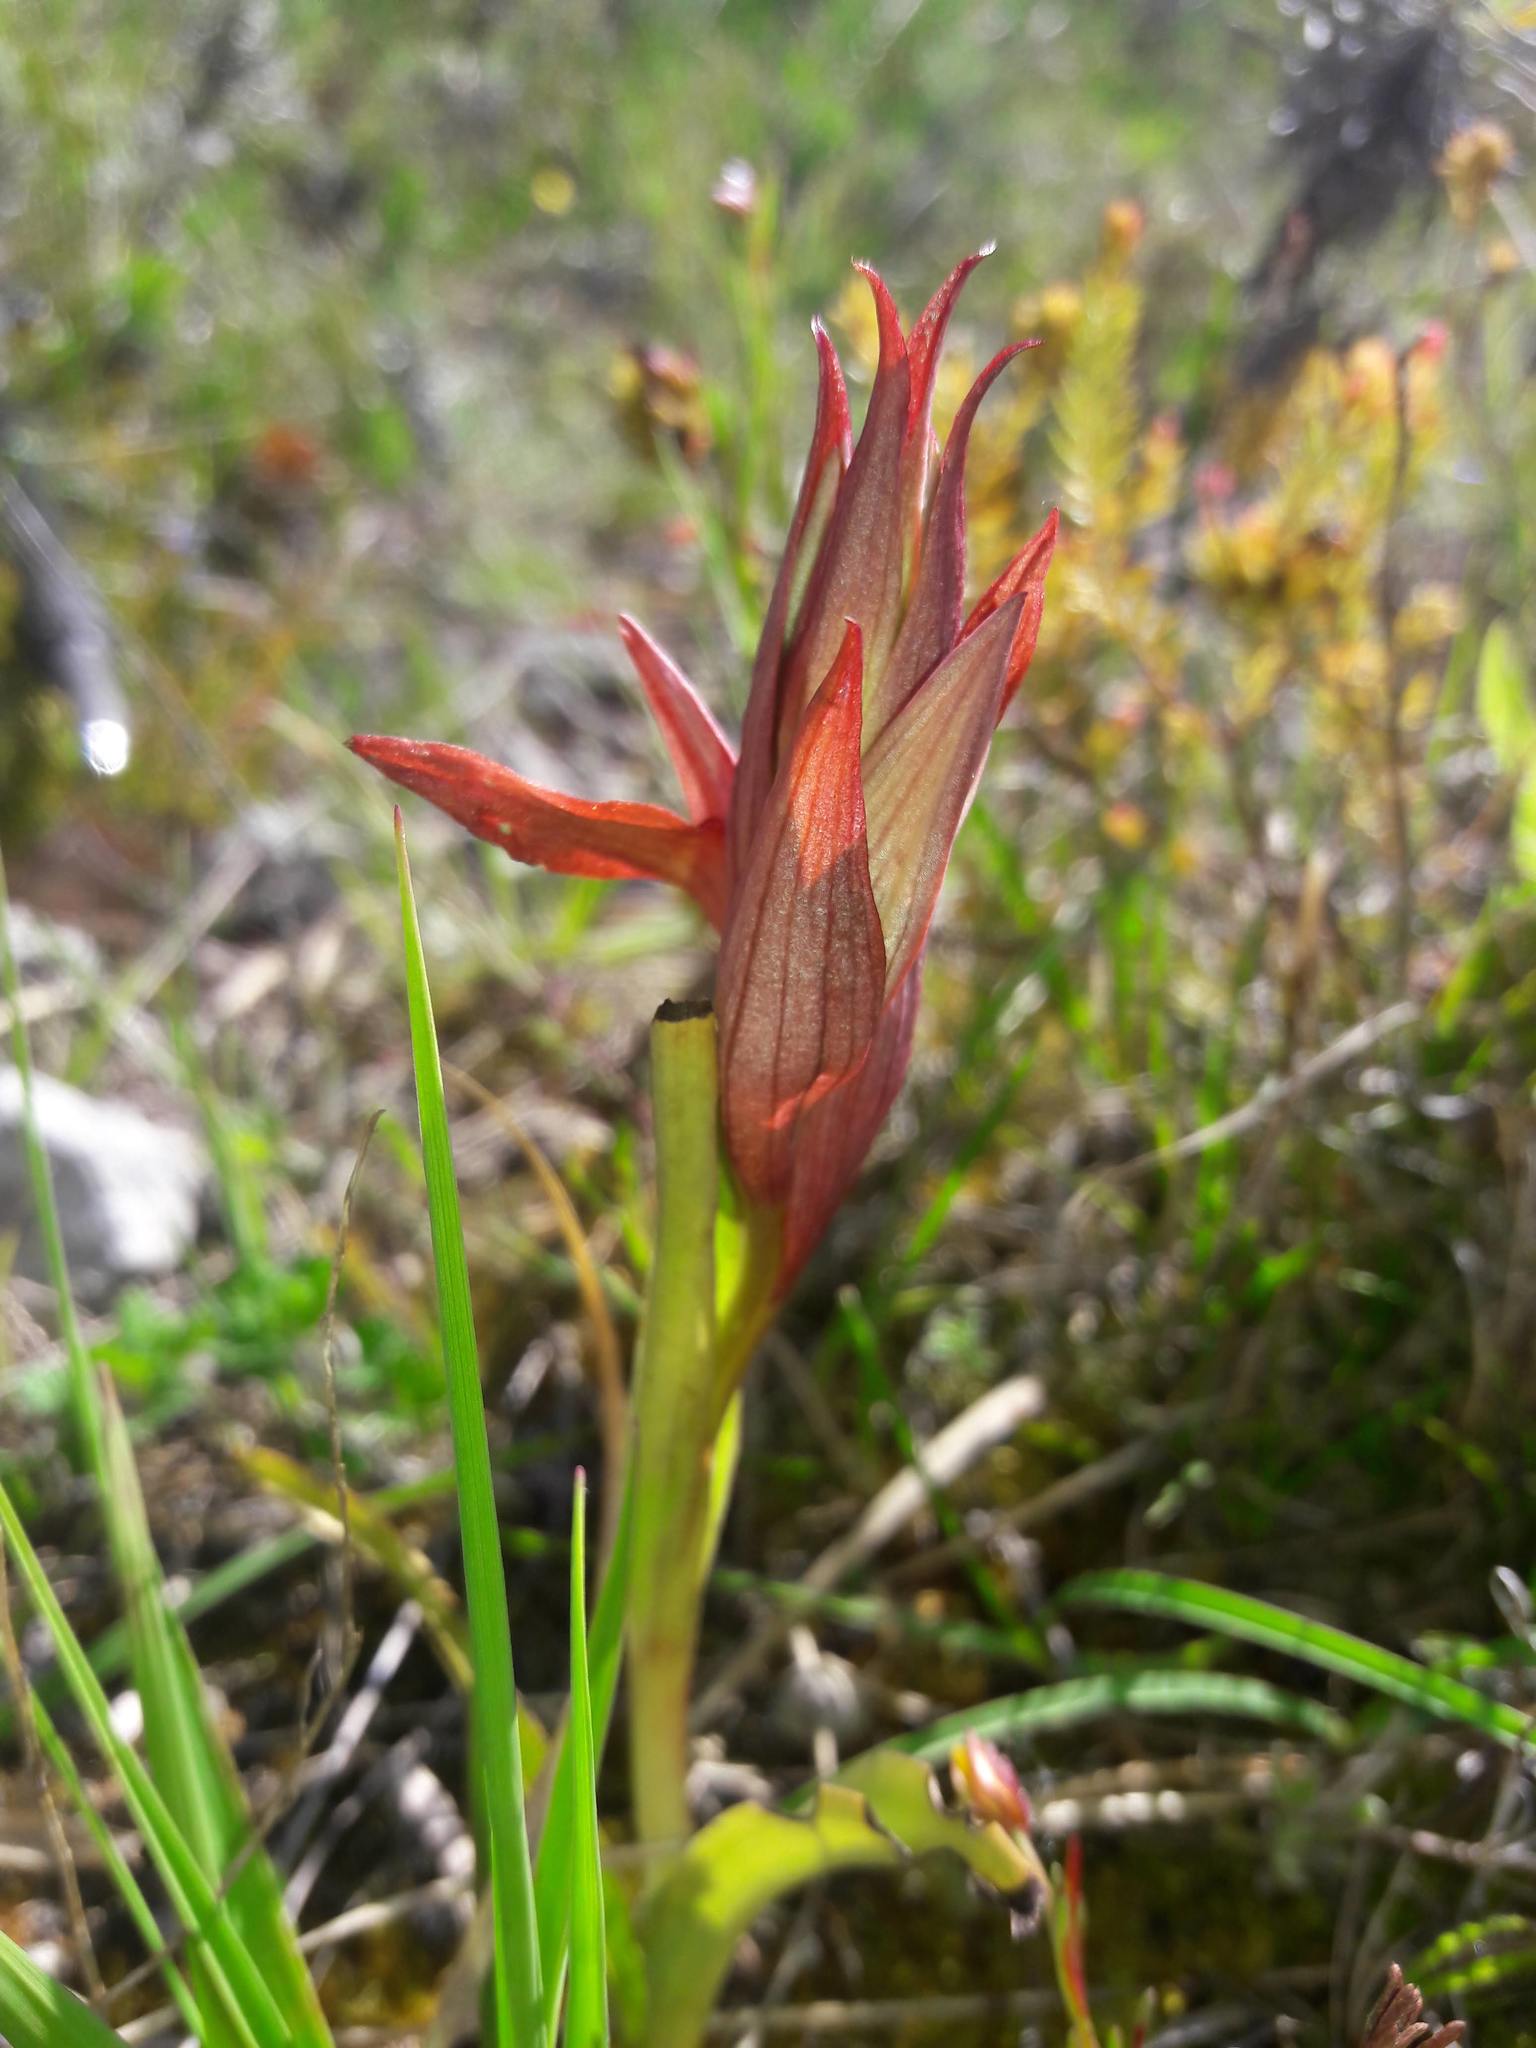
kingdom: Plantae
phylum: Tracheophyta
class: Liliopsida
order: Asparagales
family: Orchidaceae
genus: Serapias
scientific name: Serapias vomeracea
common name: Long-lipped tongue-orchid
